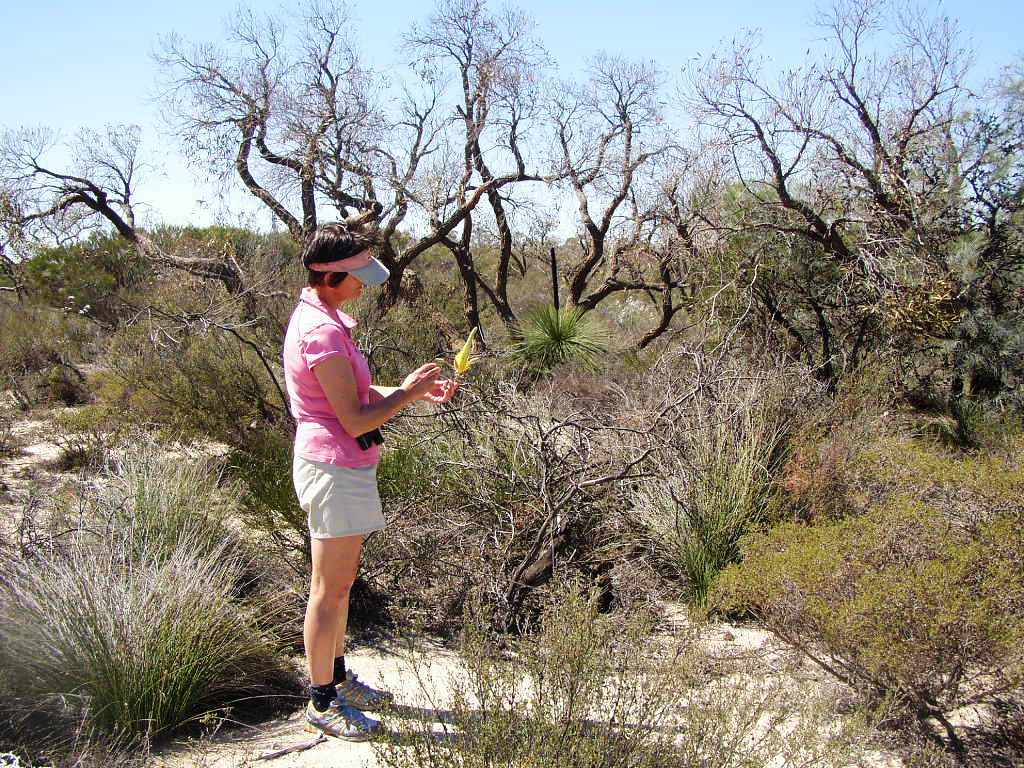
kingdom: Plantae
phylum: Tracheophyta
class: Magnoliopsida
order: Proteales
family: Proteaceae
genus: Grevillea
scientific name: Grevillea eriostachya
